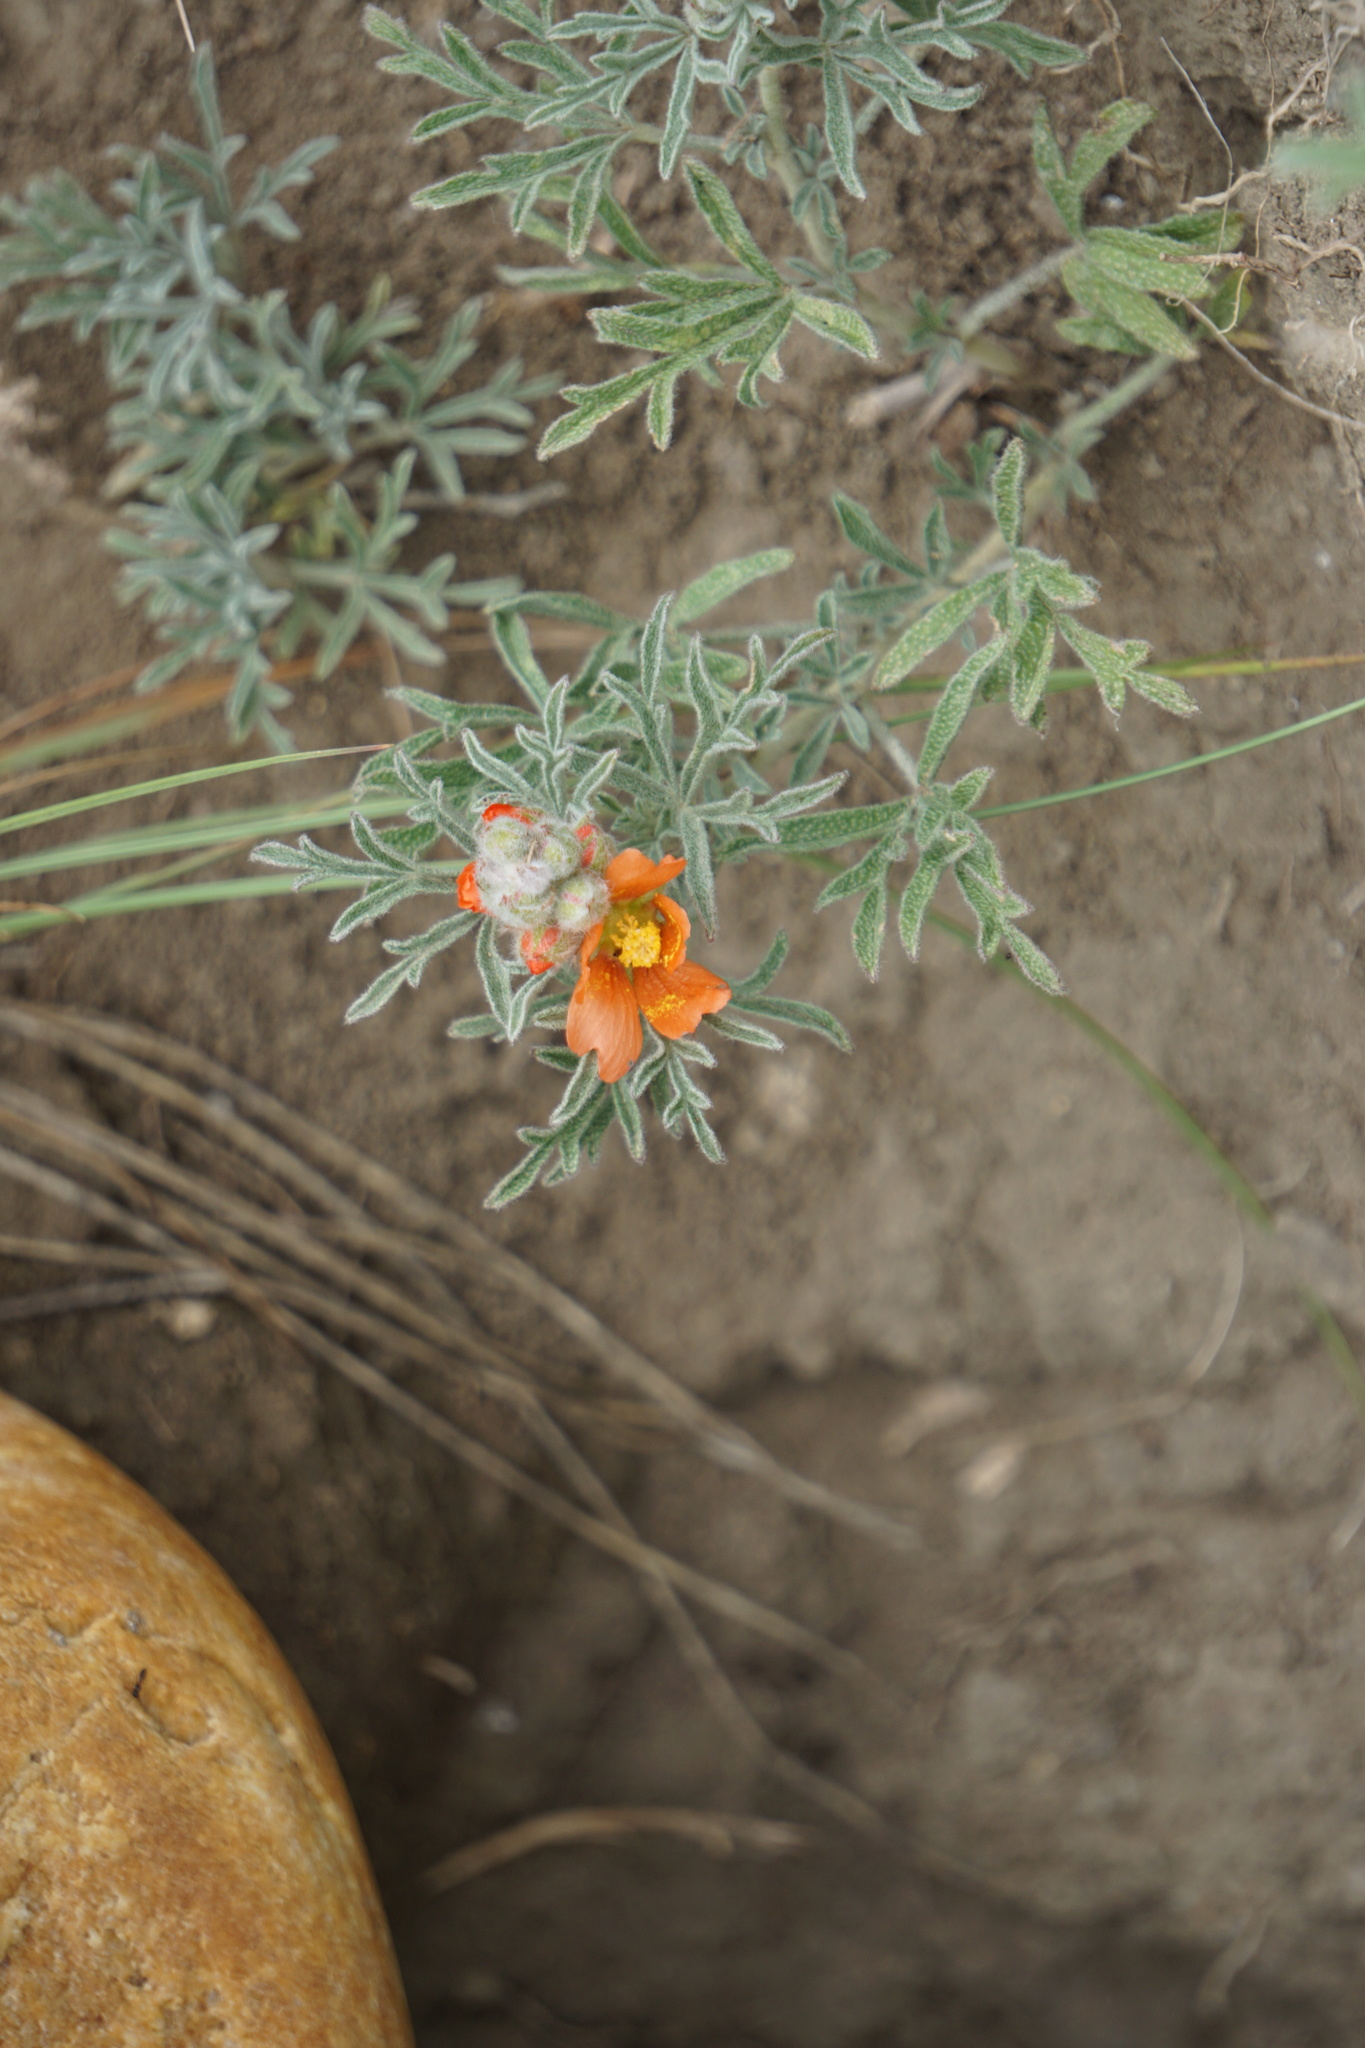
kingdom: Plantae
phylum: Tracheophyta
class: Magnoliopsida
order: Malvales
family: Malvaceae
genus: Sphaeralcea
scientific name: Sphaeralcea coccinea
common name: Moss-rose
